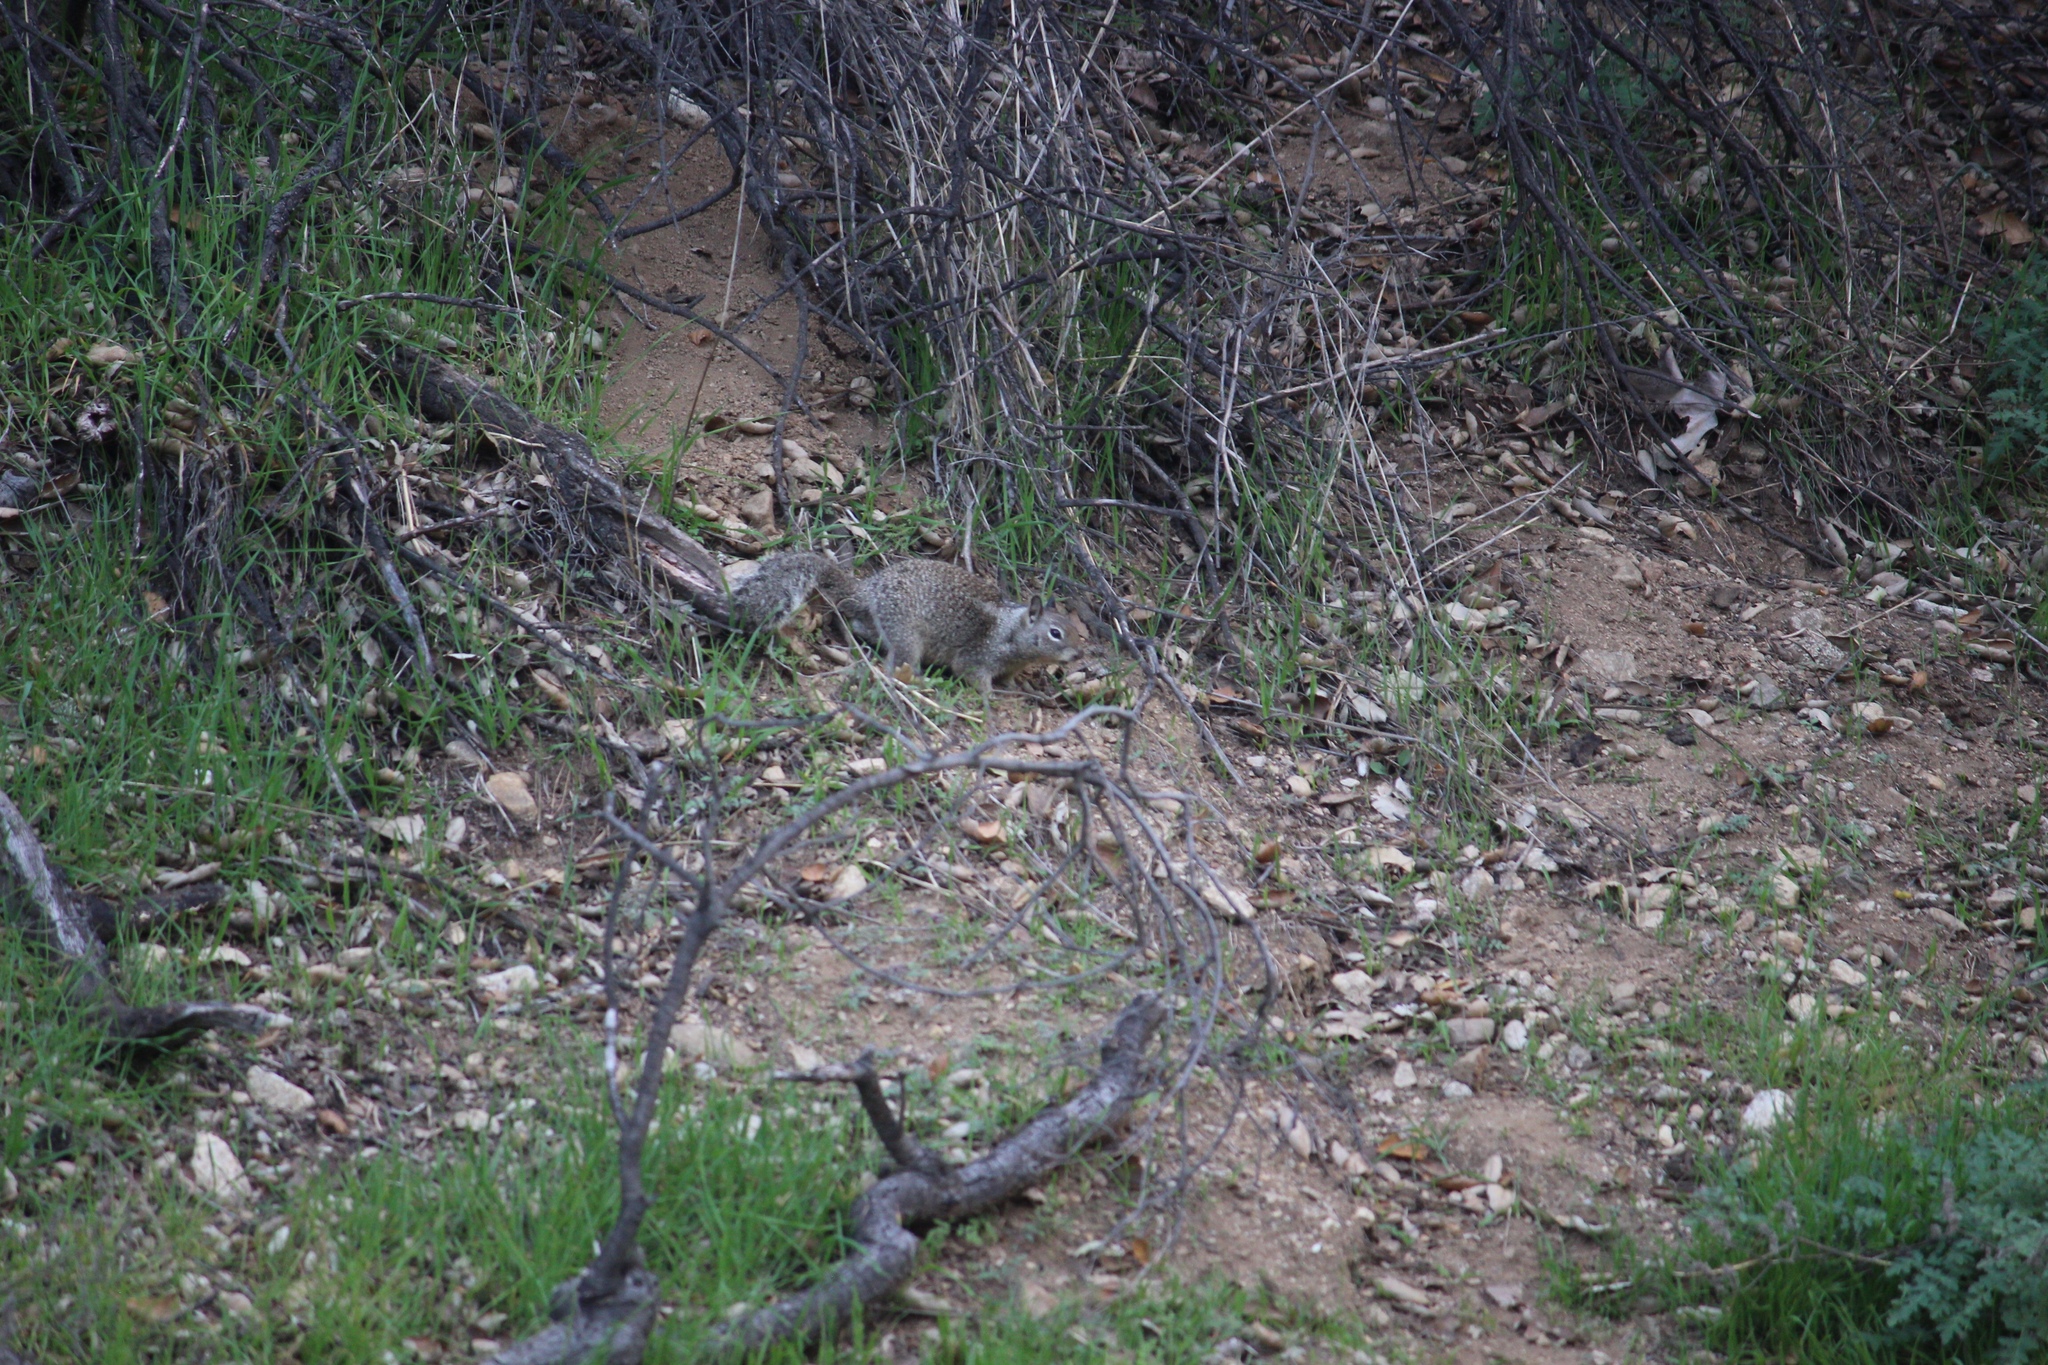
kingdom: Animalia
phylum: Chordata
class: Mammalia
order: Rodentia
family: Sciuridae
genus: Otospermophilus
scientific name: Otospermophilus beecheyi
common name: California ground squirrel
